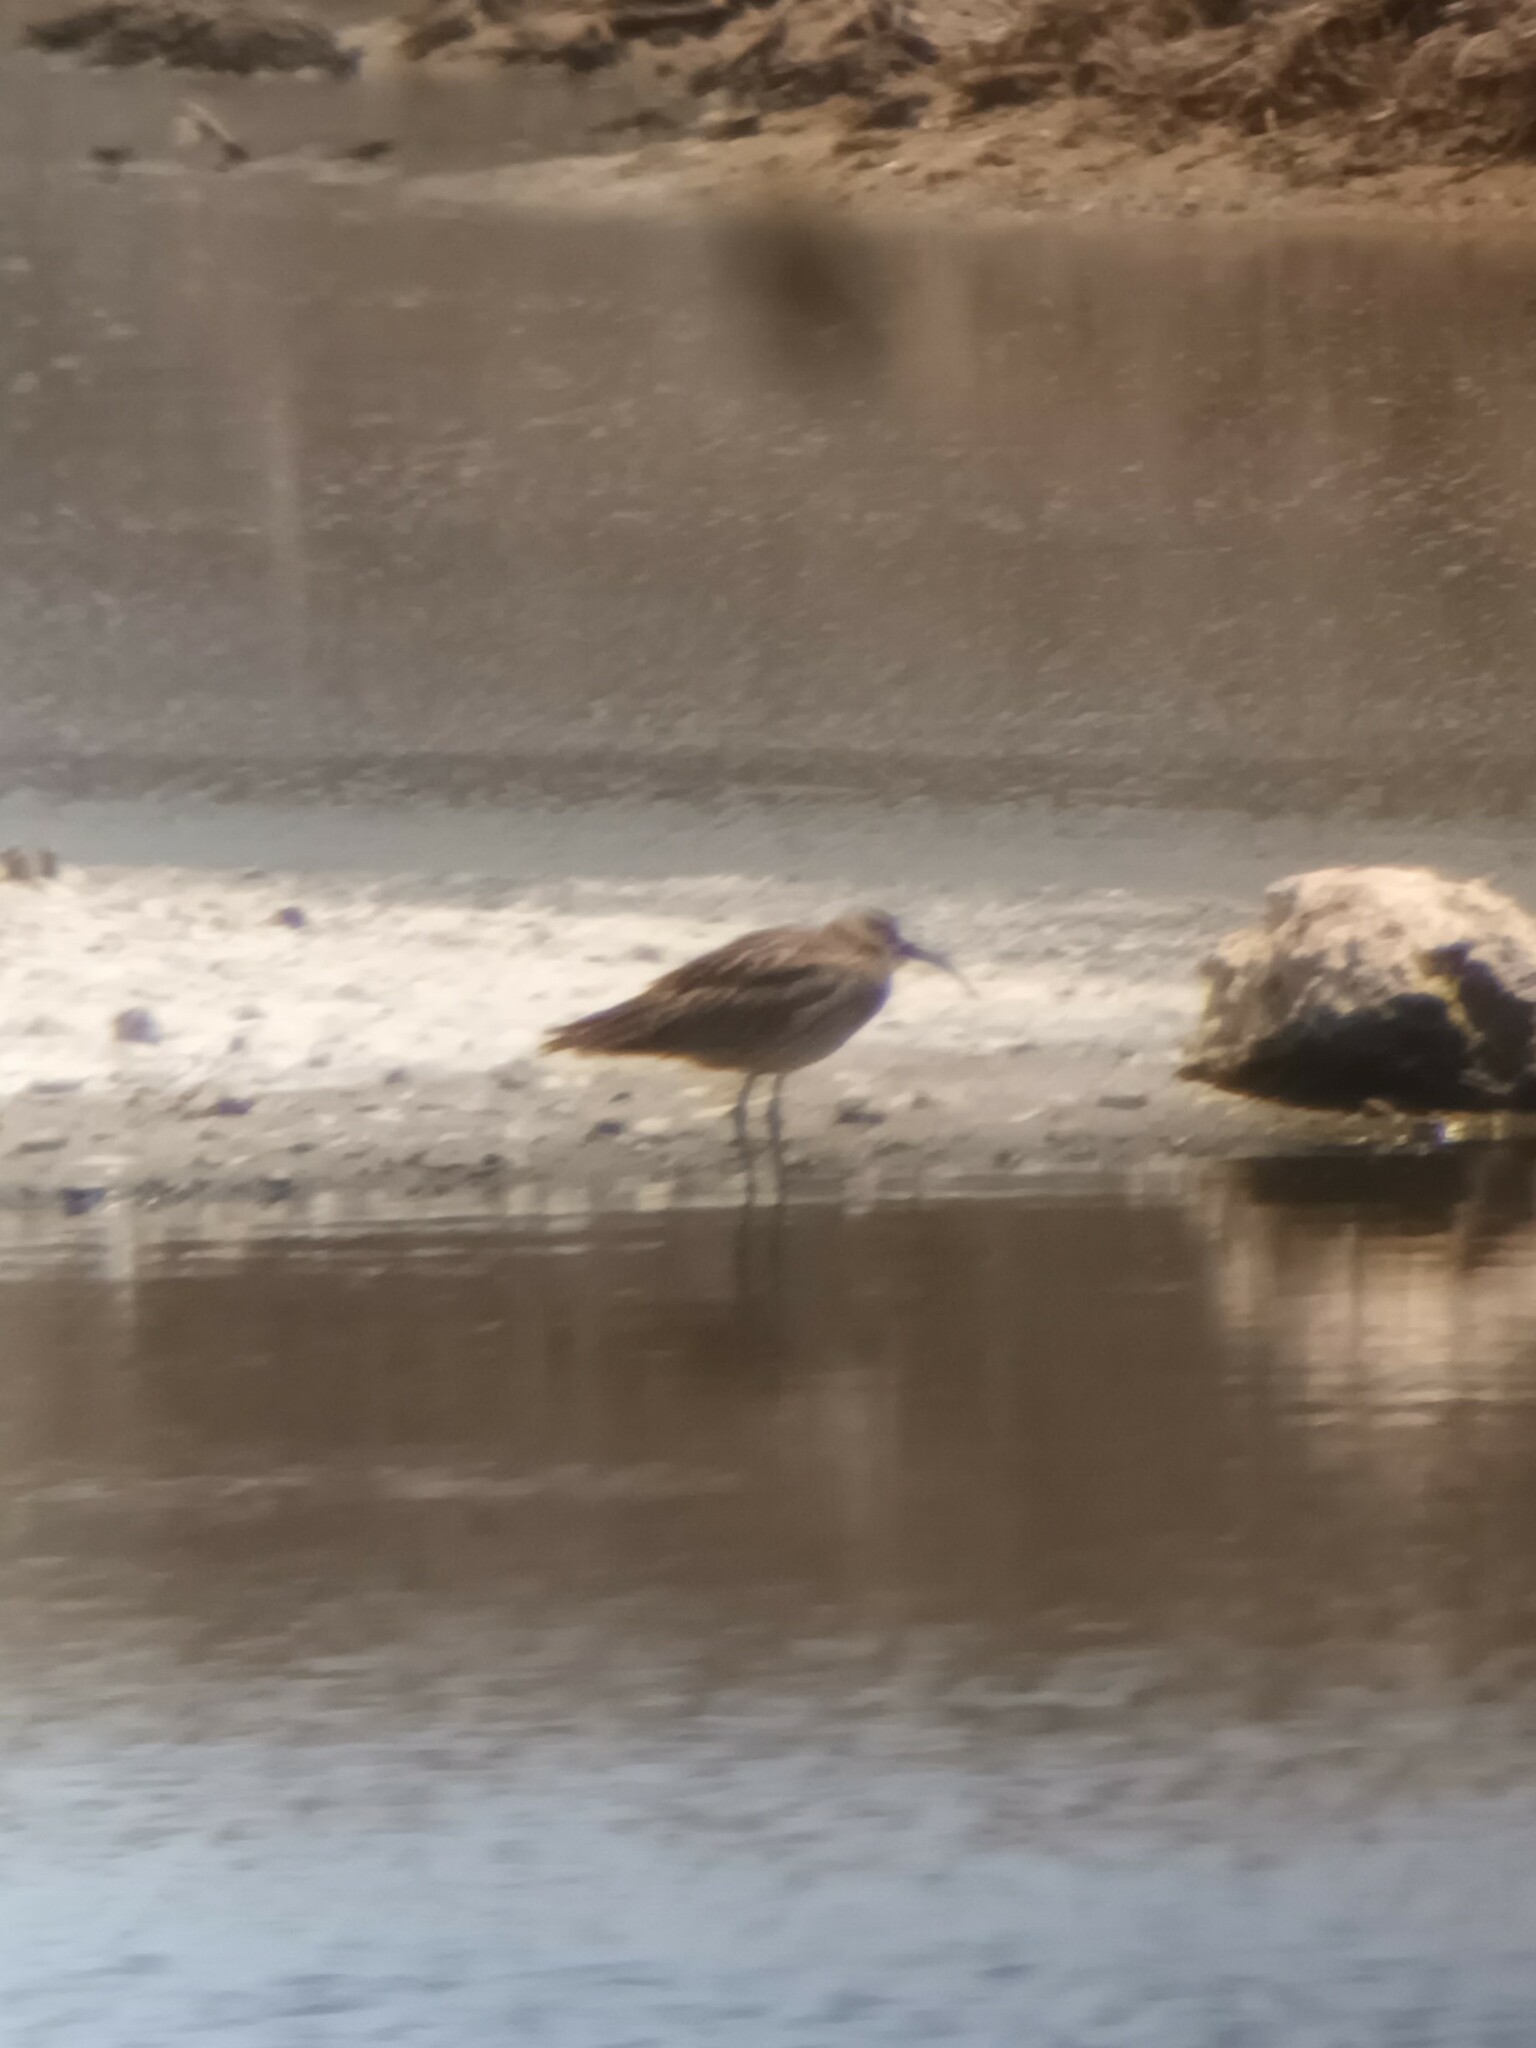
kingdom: Animalia
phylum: Chordata
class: Aves
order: Charadriiformes
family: Scolopacidae
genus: Numenius
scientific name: Numenius phaeopus
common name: Whimbrel
